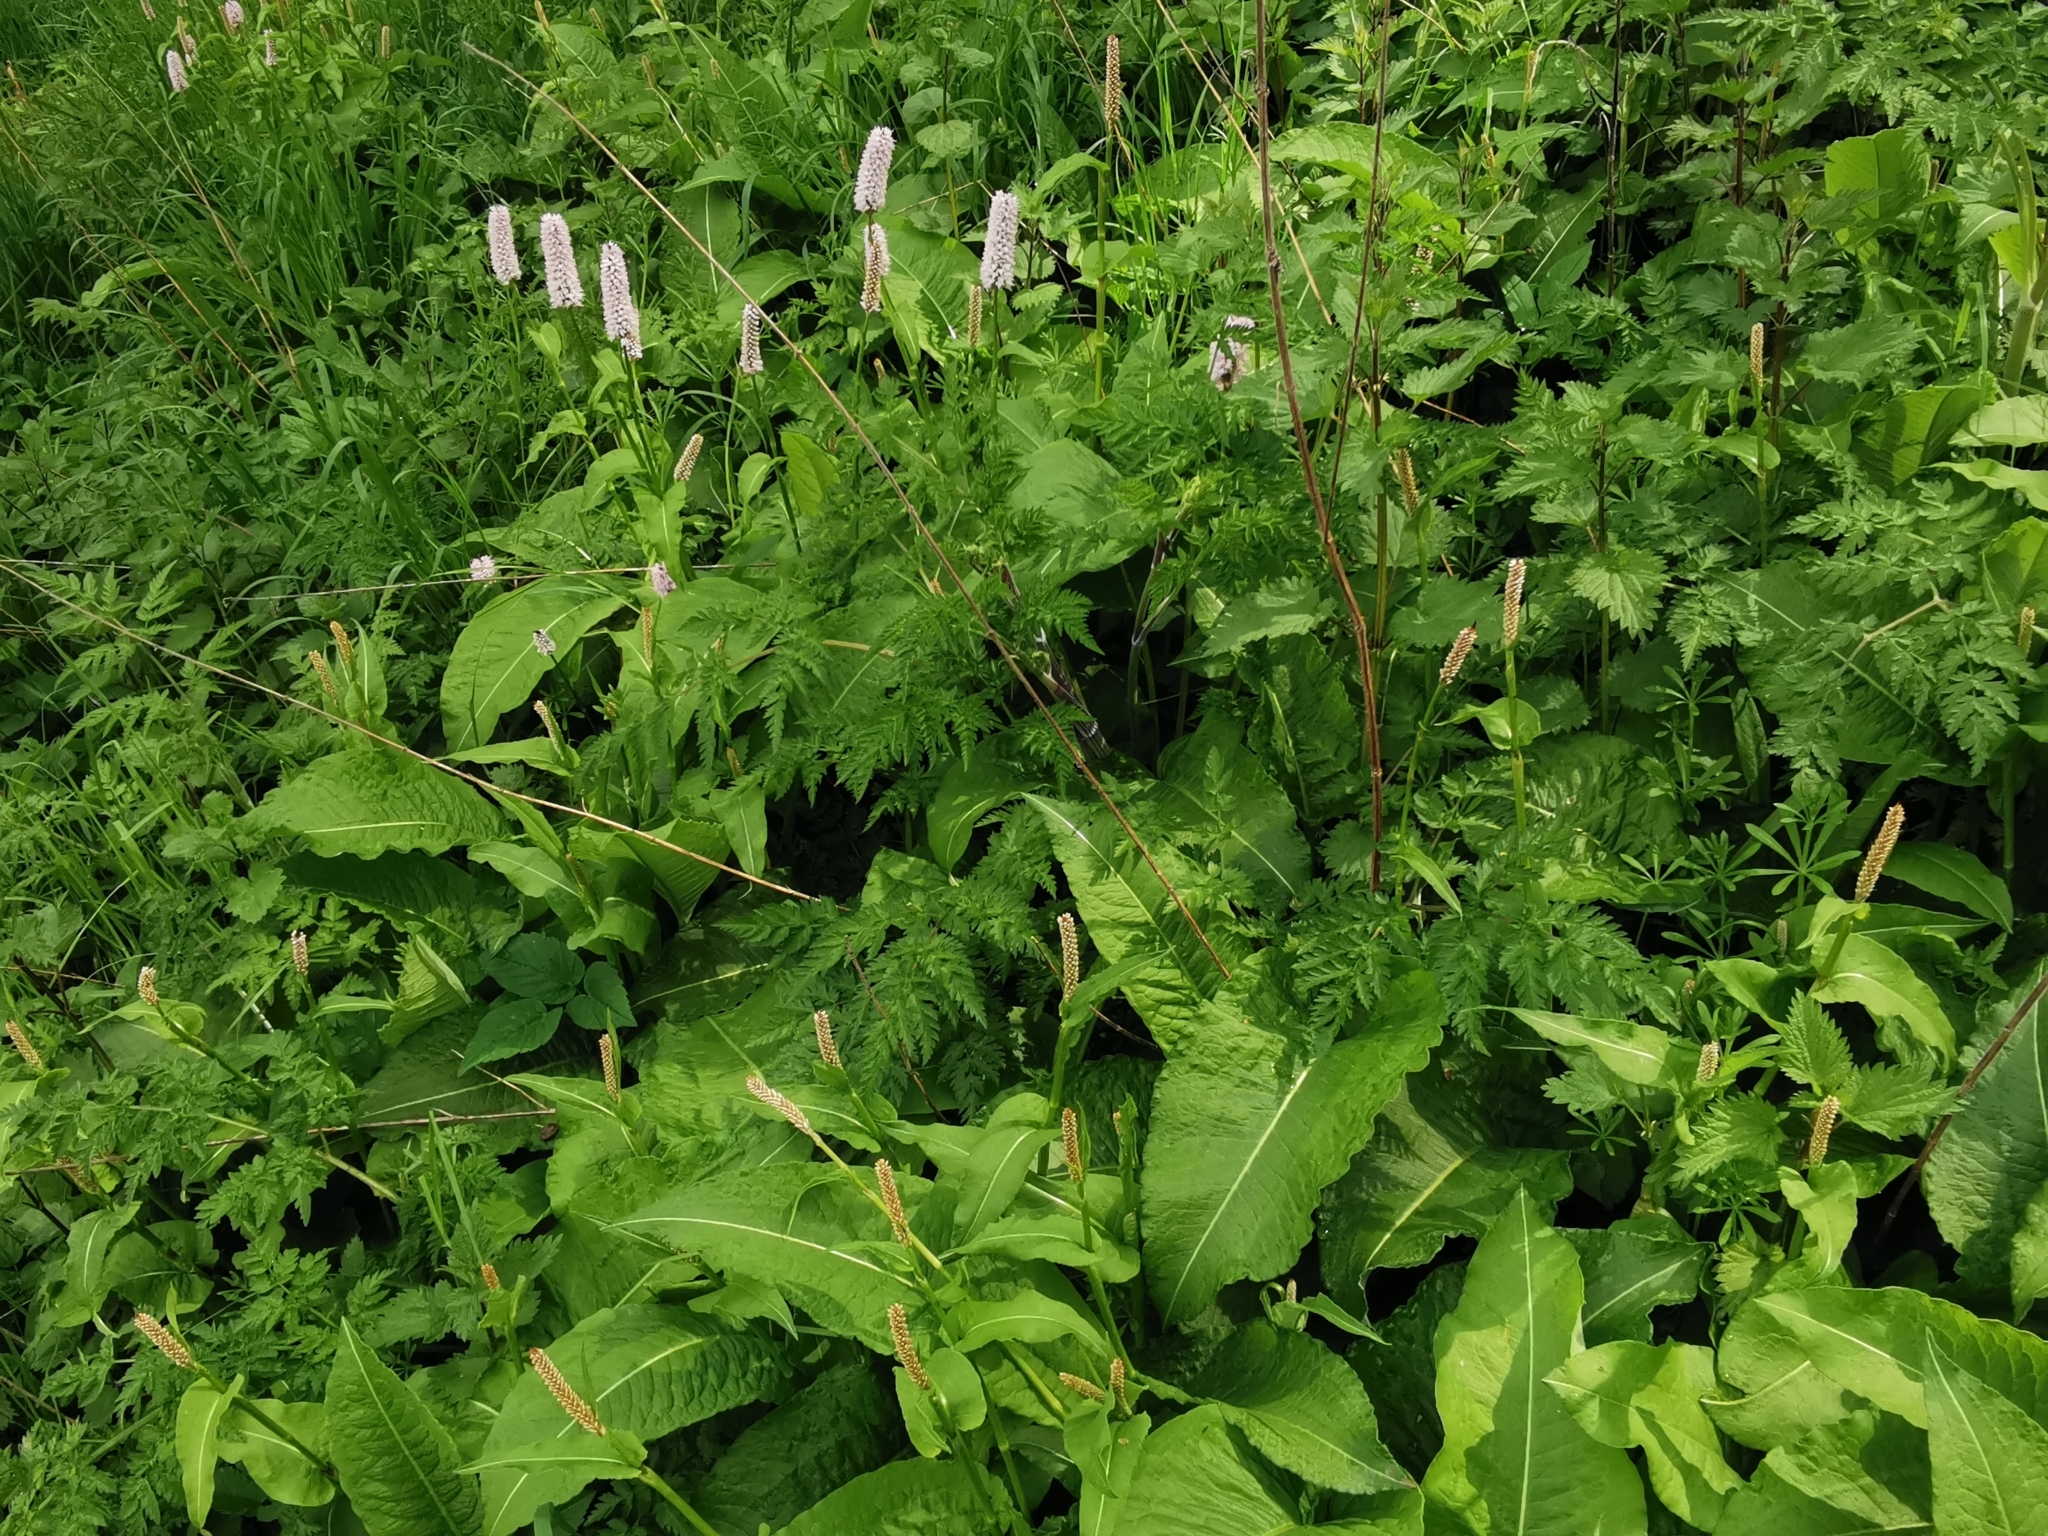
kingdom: Plantae
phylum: Tracheophyta
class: Magnoliopsida
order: Caryophyllales
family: Polygonaceae
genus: Bistorta
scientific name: Bistorta officinalis
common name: Common bistort
